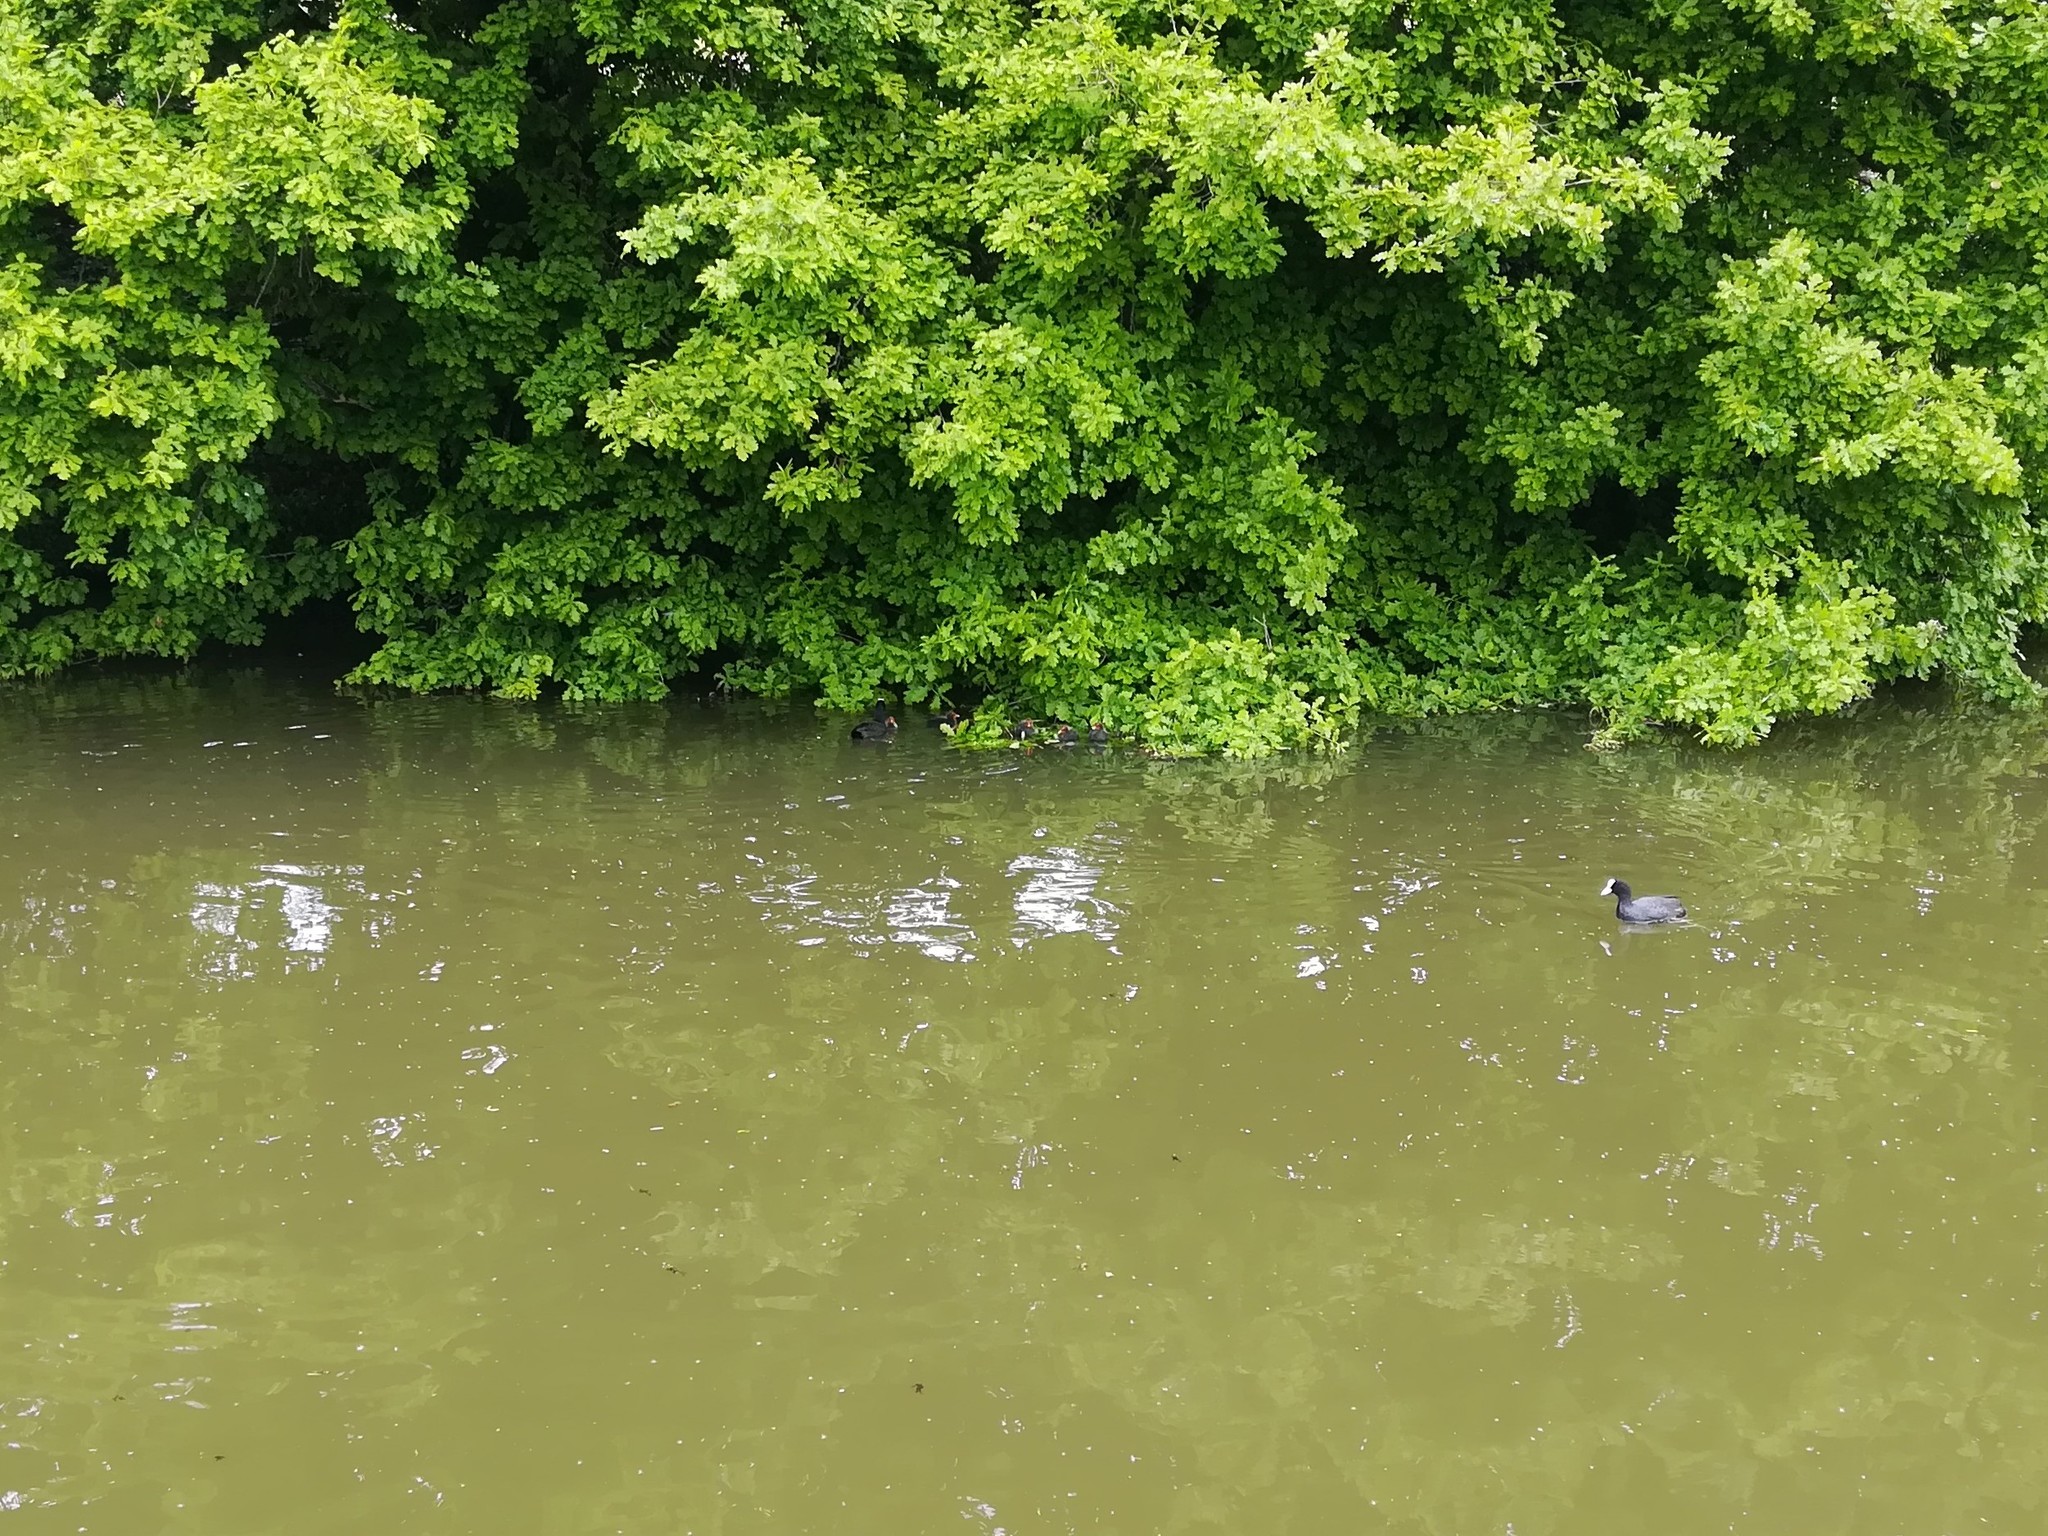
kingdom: Animalia
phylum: Chordata
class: Aves
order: Gruiformes
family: Rallidae
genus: Fulica
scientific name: Fulica atra
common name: Eurasian coot
